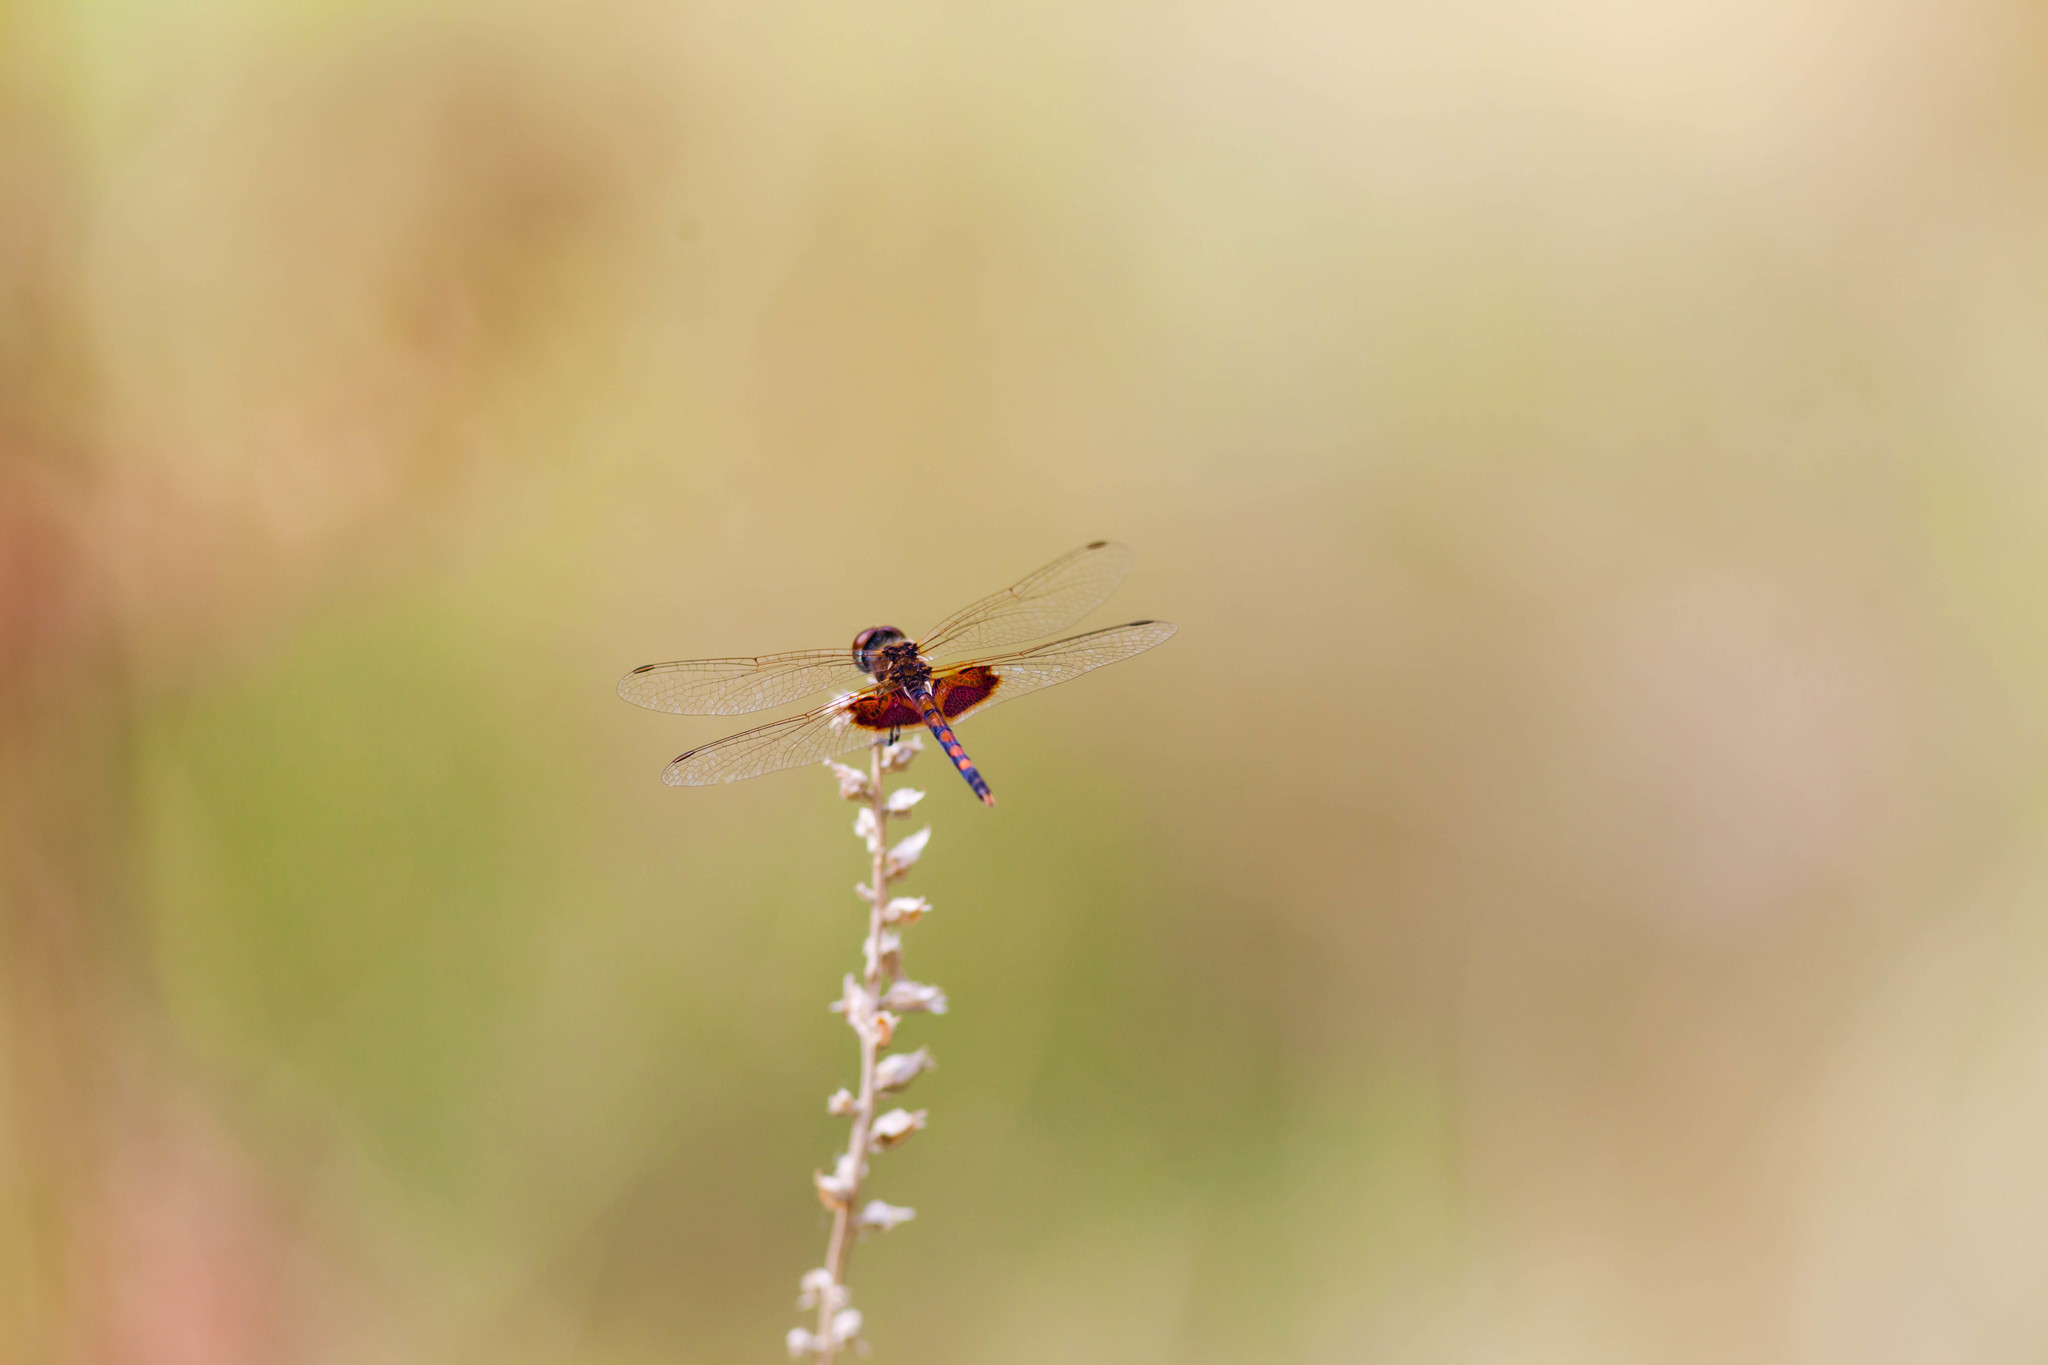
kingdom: Animalia
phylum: Arthropoda
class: Insecta
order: Odonata
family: Libellulidae
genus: Celithemis
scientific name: Celithemis amanda
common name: Amanda's pennant
